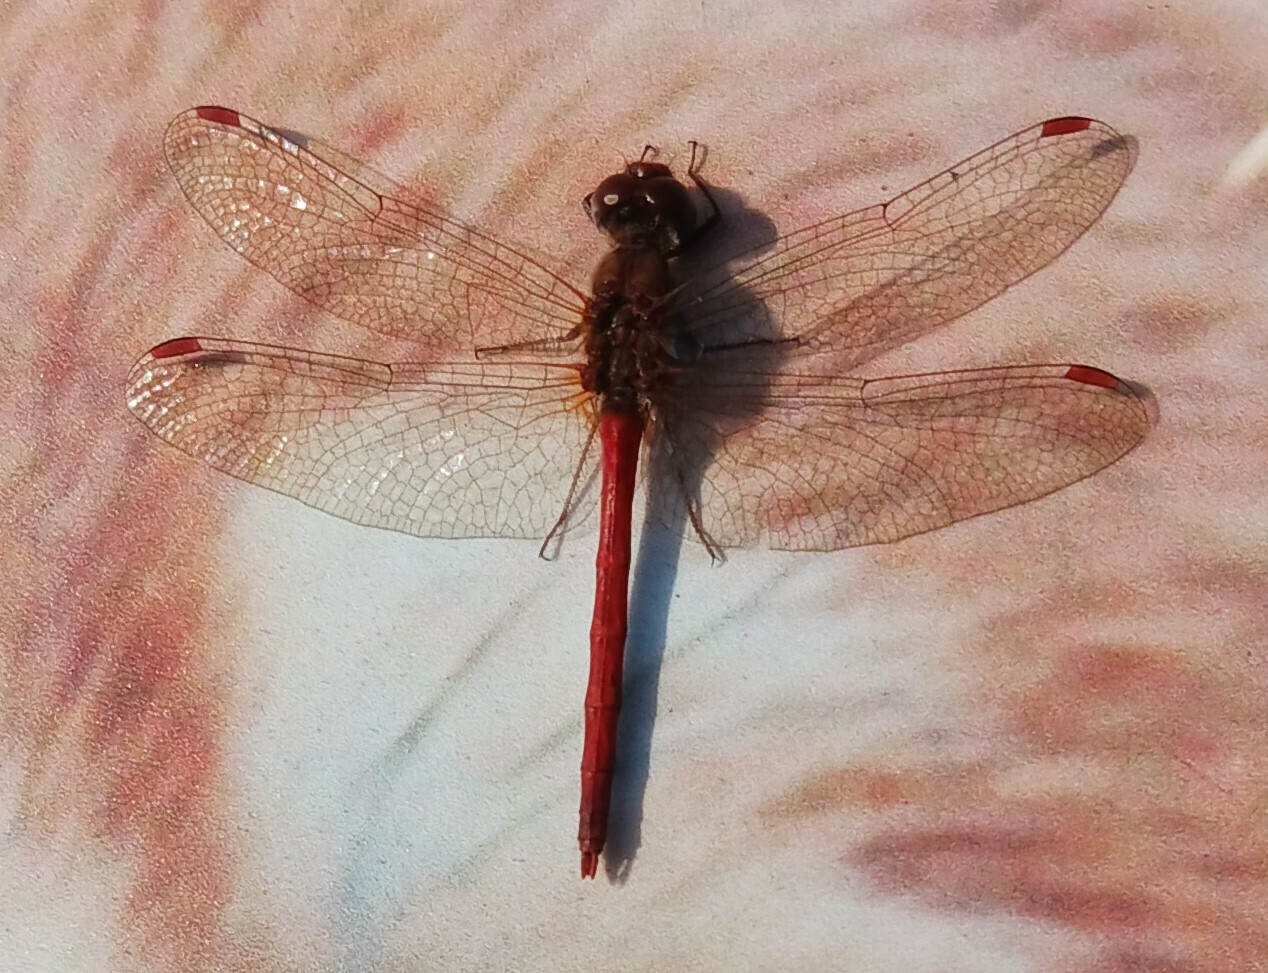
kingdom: Animalia
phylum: Arthropoda
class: Insecta
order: Odonata
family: Libellulidae
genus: Sympetrum
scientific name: Sympetrum vicinum
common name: Autumn meadowhawk
